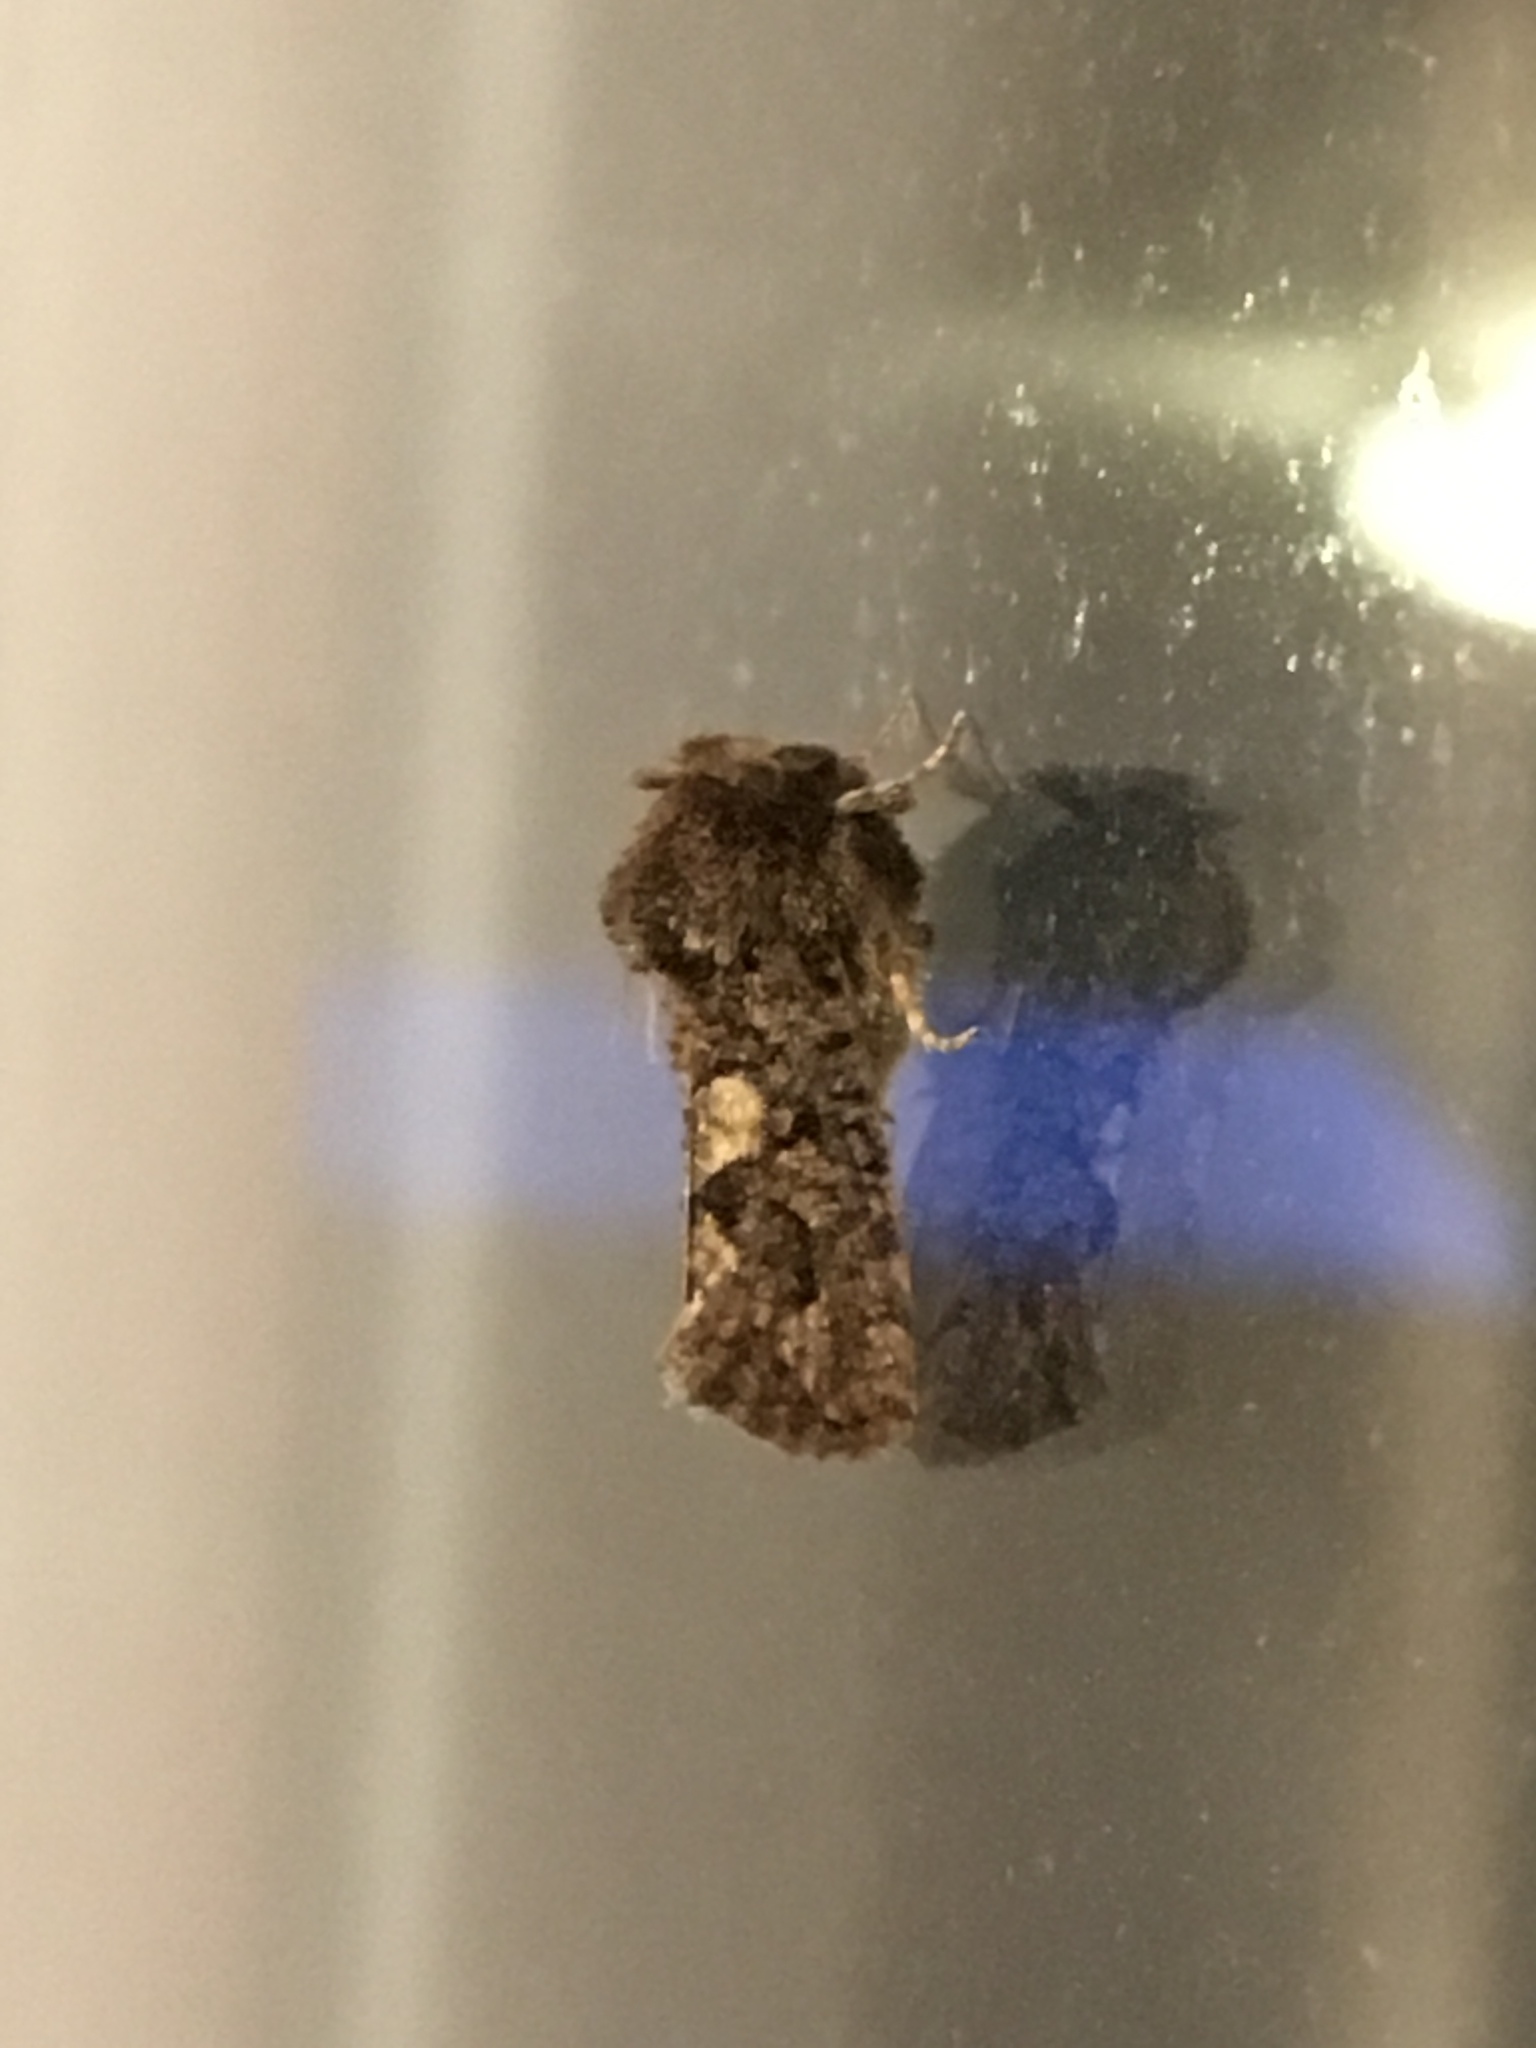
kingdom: Animalia
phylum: Arthropoda
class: Insecta
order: Lepidoptera
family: Tineidae
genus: Acrolophus
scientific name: Acrolophus arcanella
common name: Arcane grass tubeworm moth
